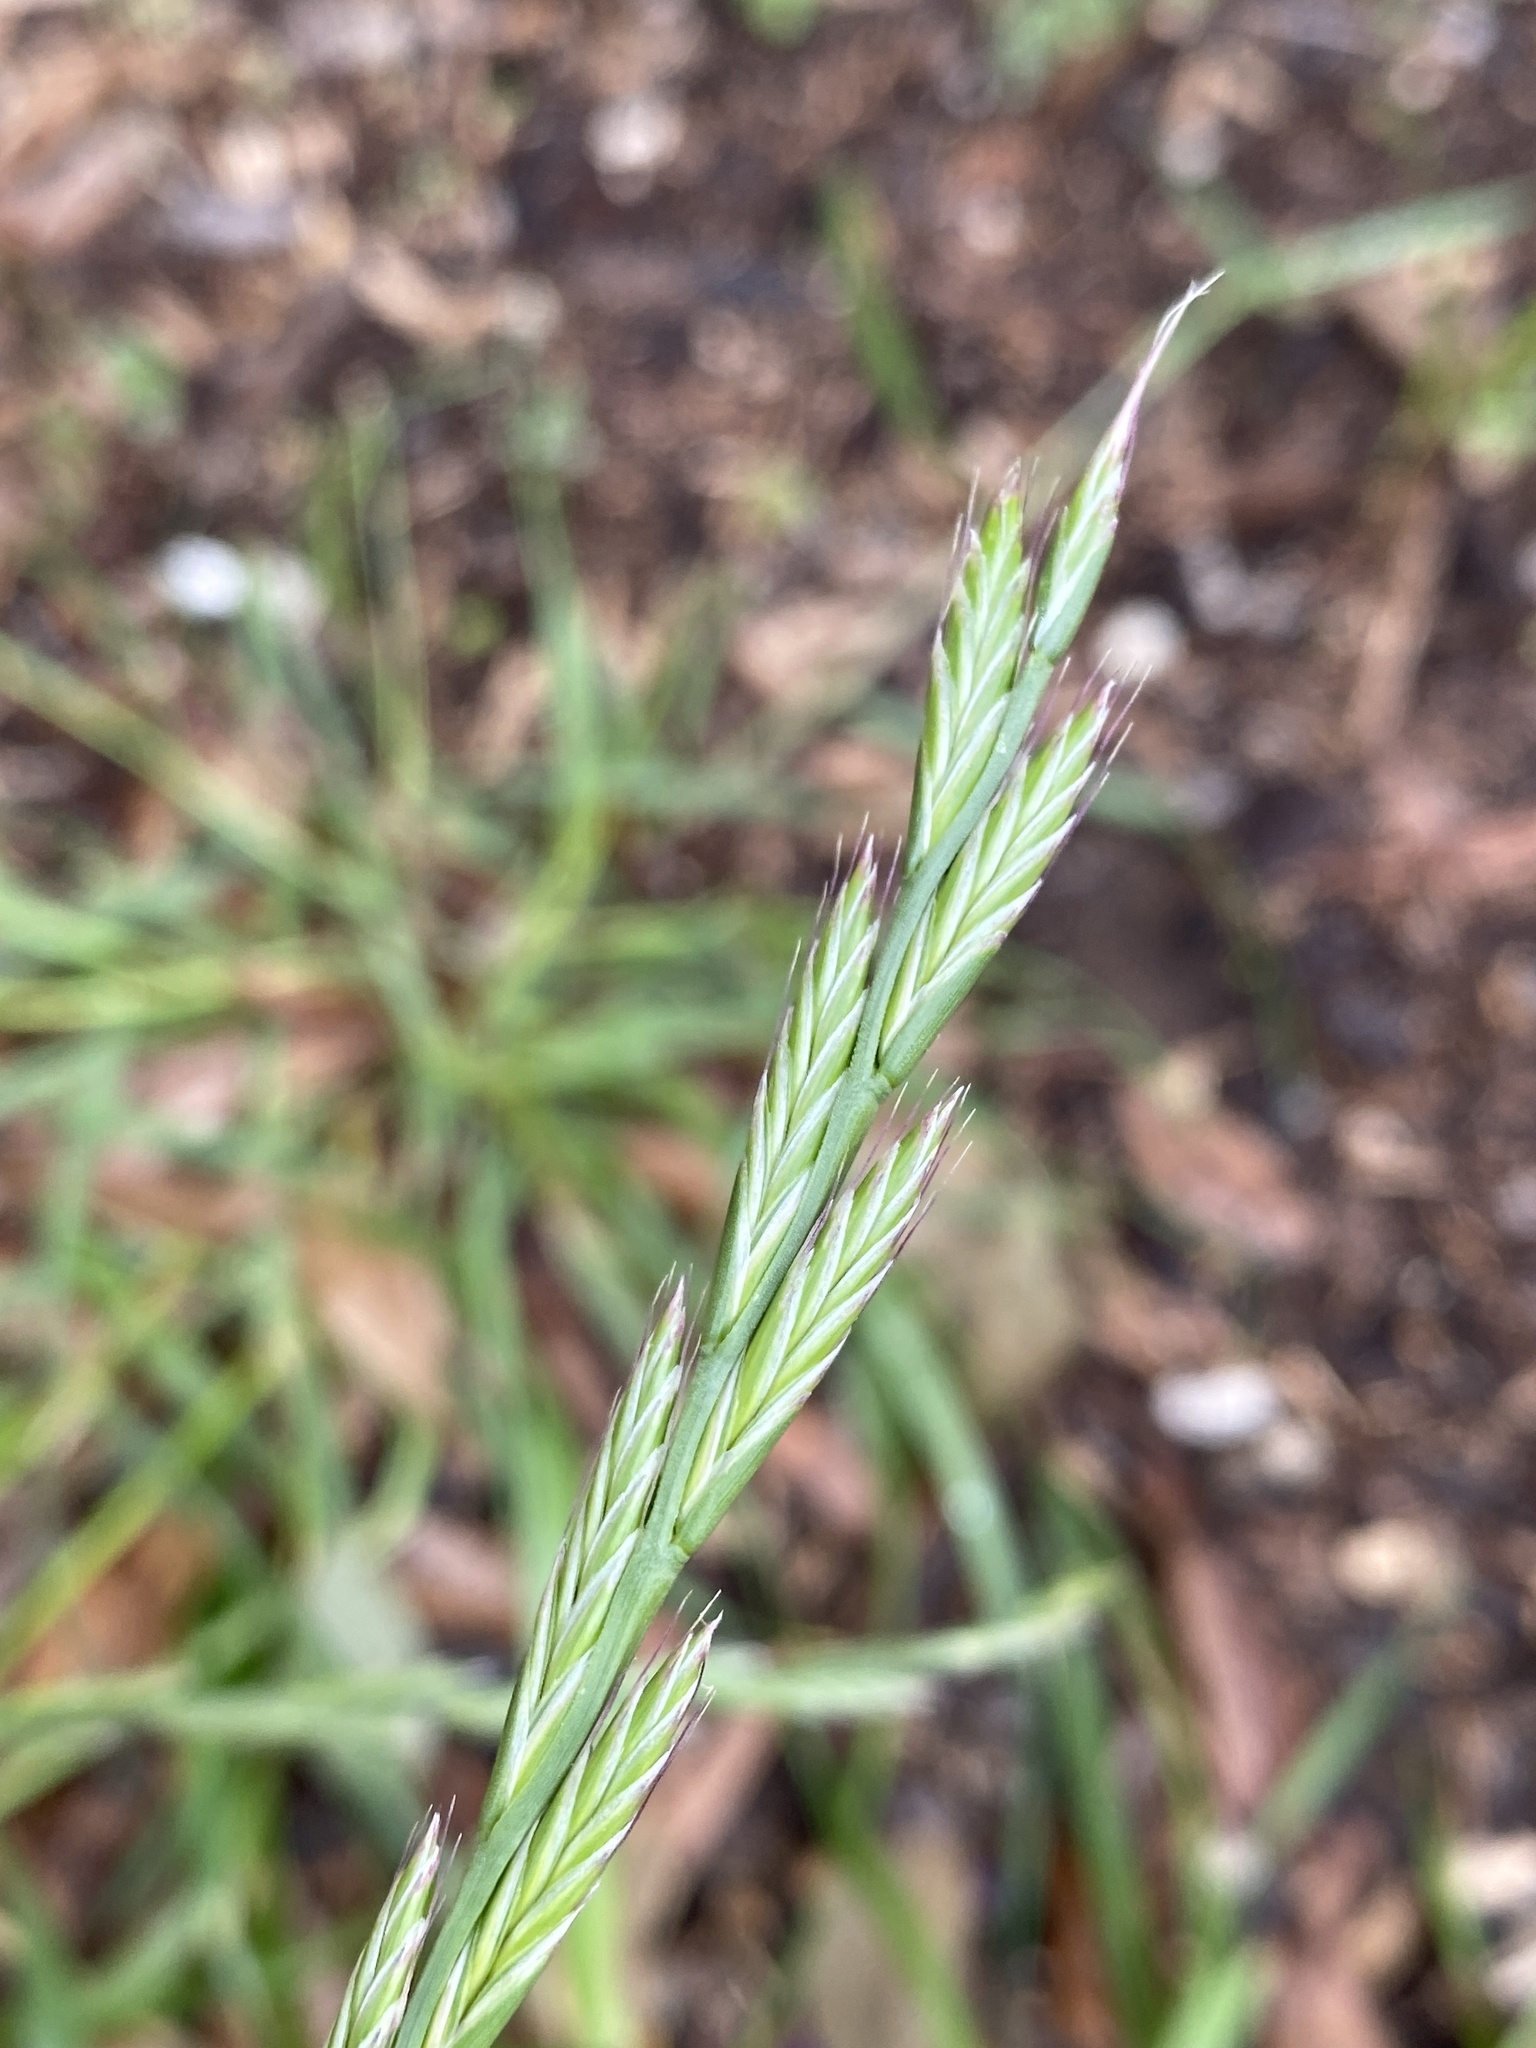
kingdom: Plantae
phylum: Tracheophyta
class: Liliopsida
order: Poales
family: Poaceae
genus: Lolium
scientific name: Lolium perenne
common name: Perennial ryegrass
